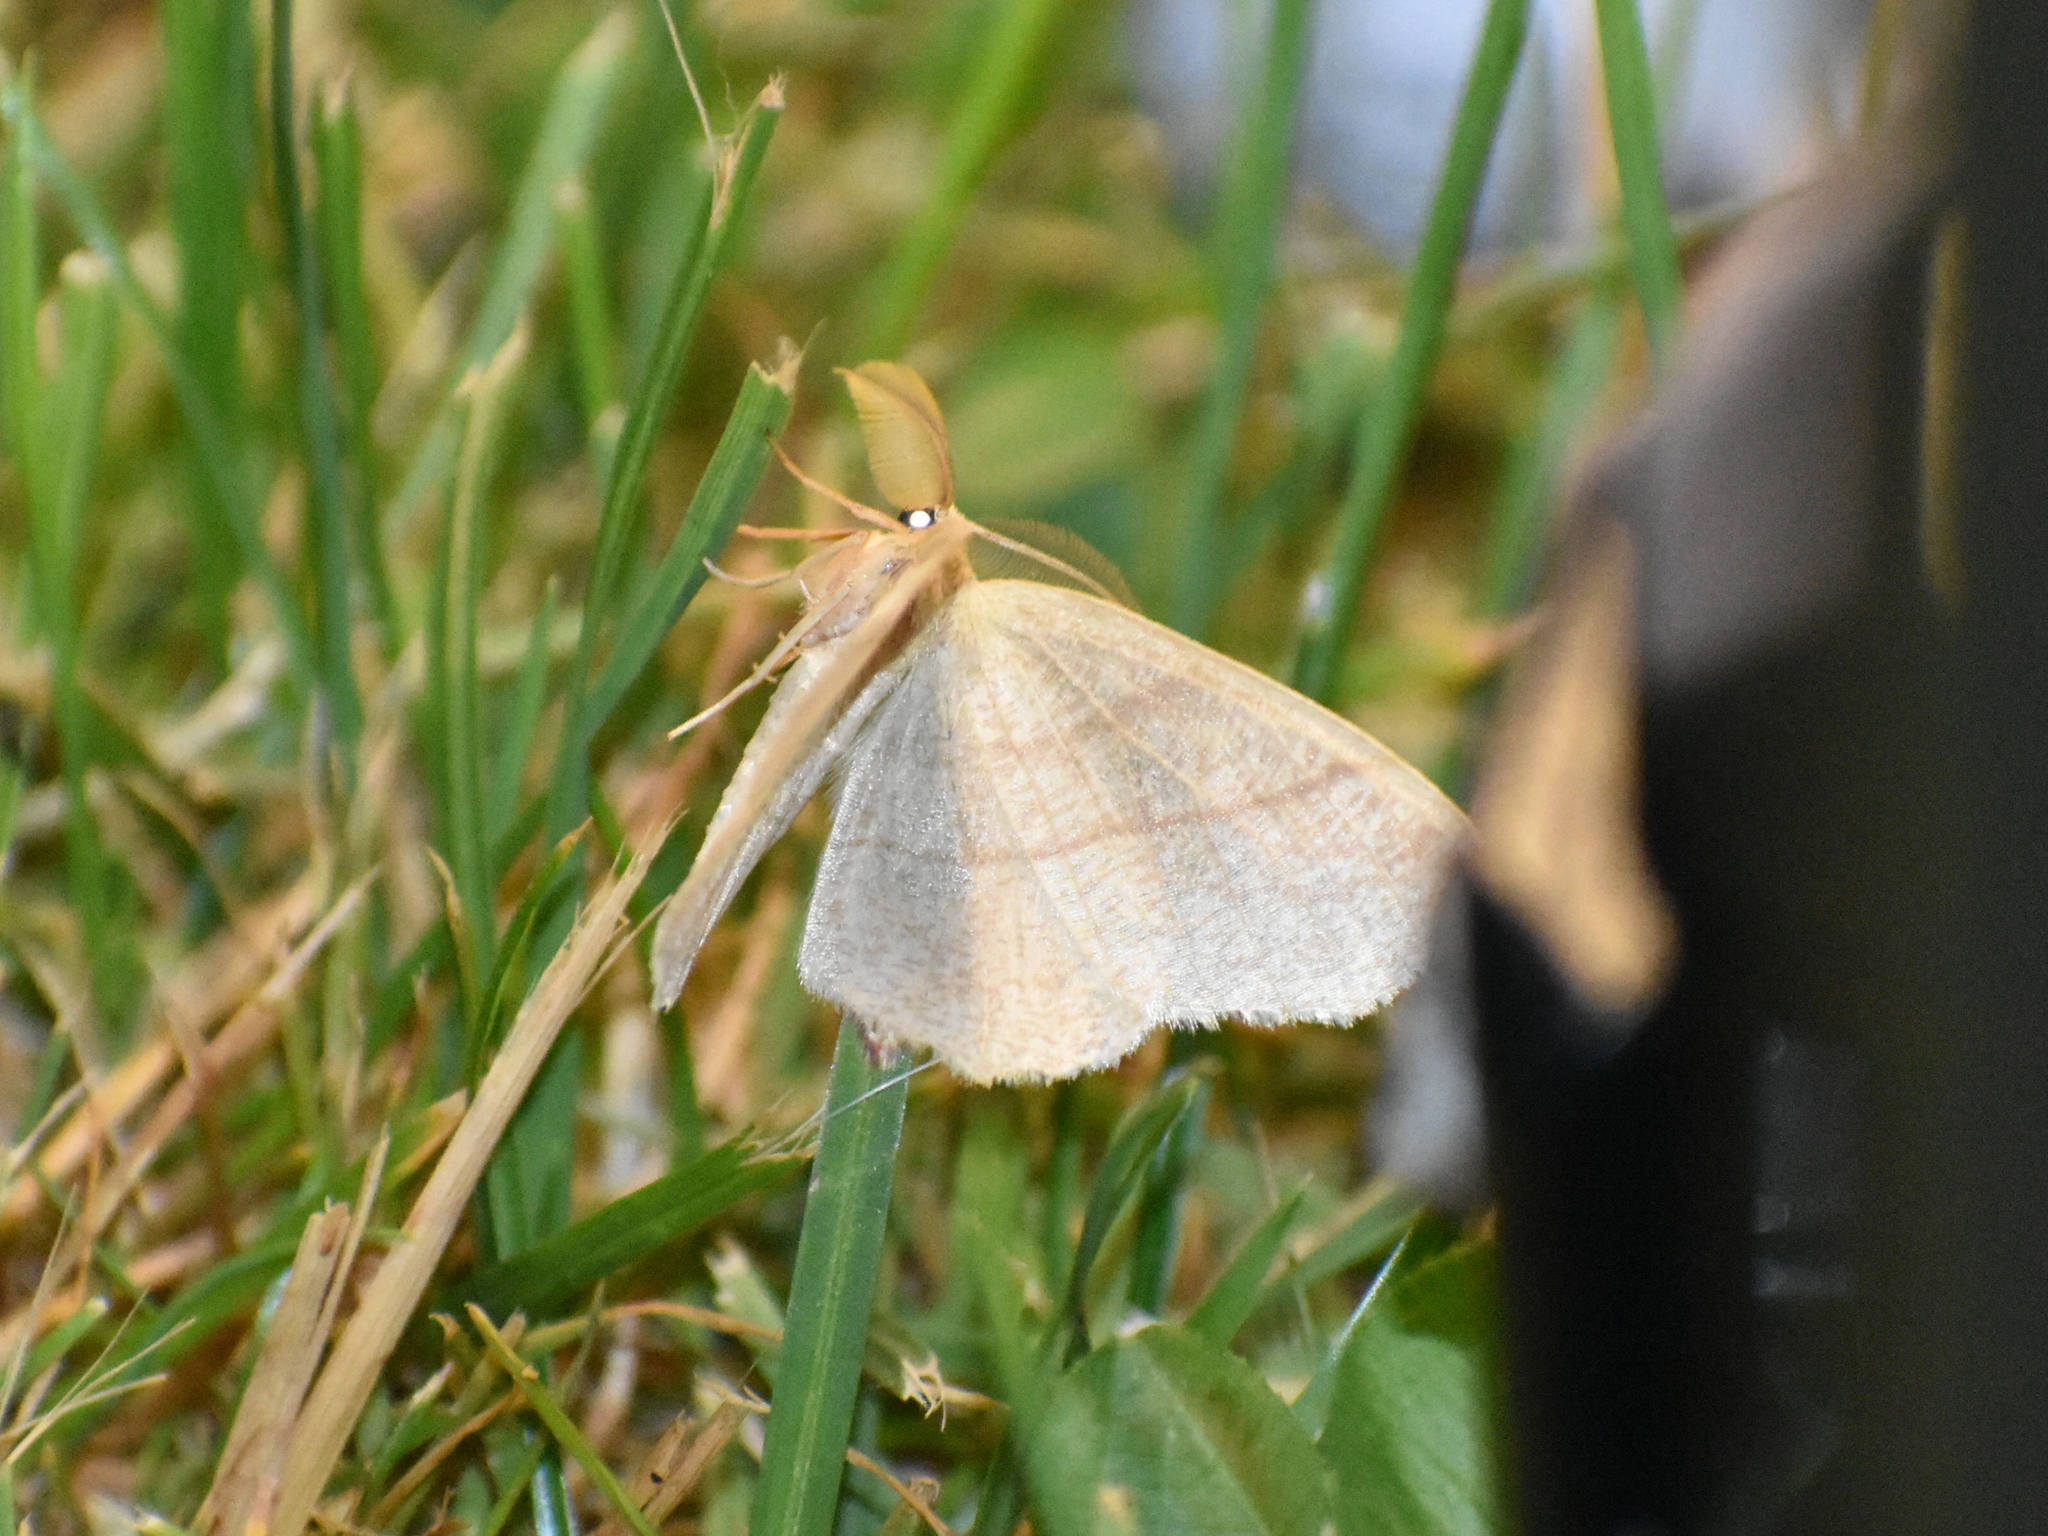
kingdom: Animalia
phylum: Arthropoda
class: Insecta
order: Lepidoptera
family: Geometridae
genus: Besma
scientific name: Besma endropiaria
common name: Straw besma
